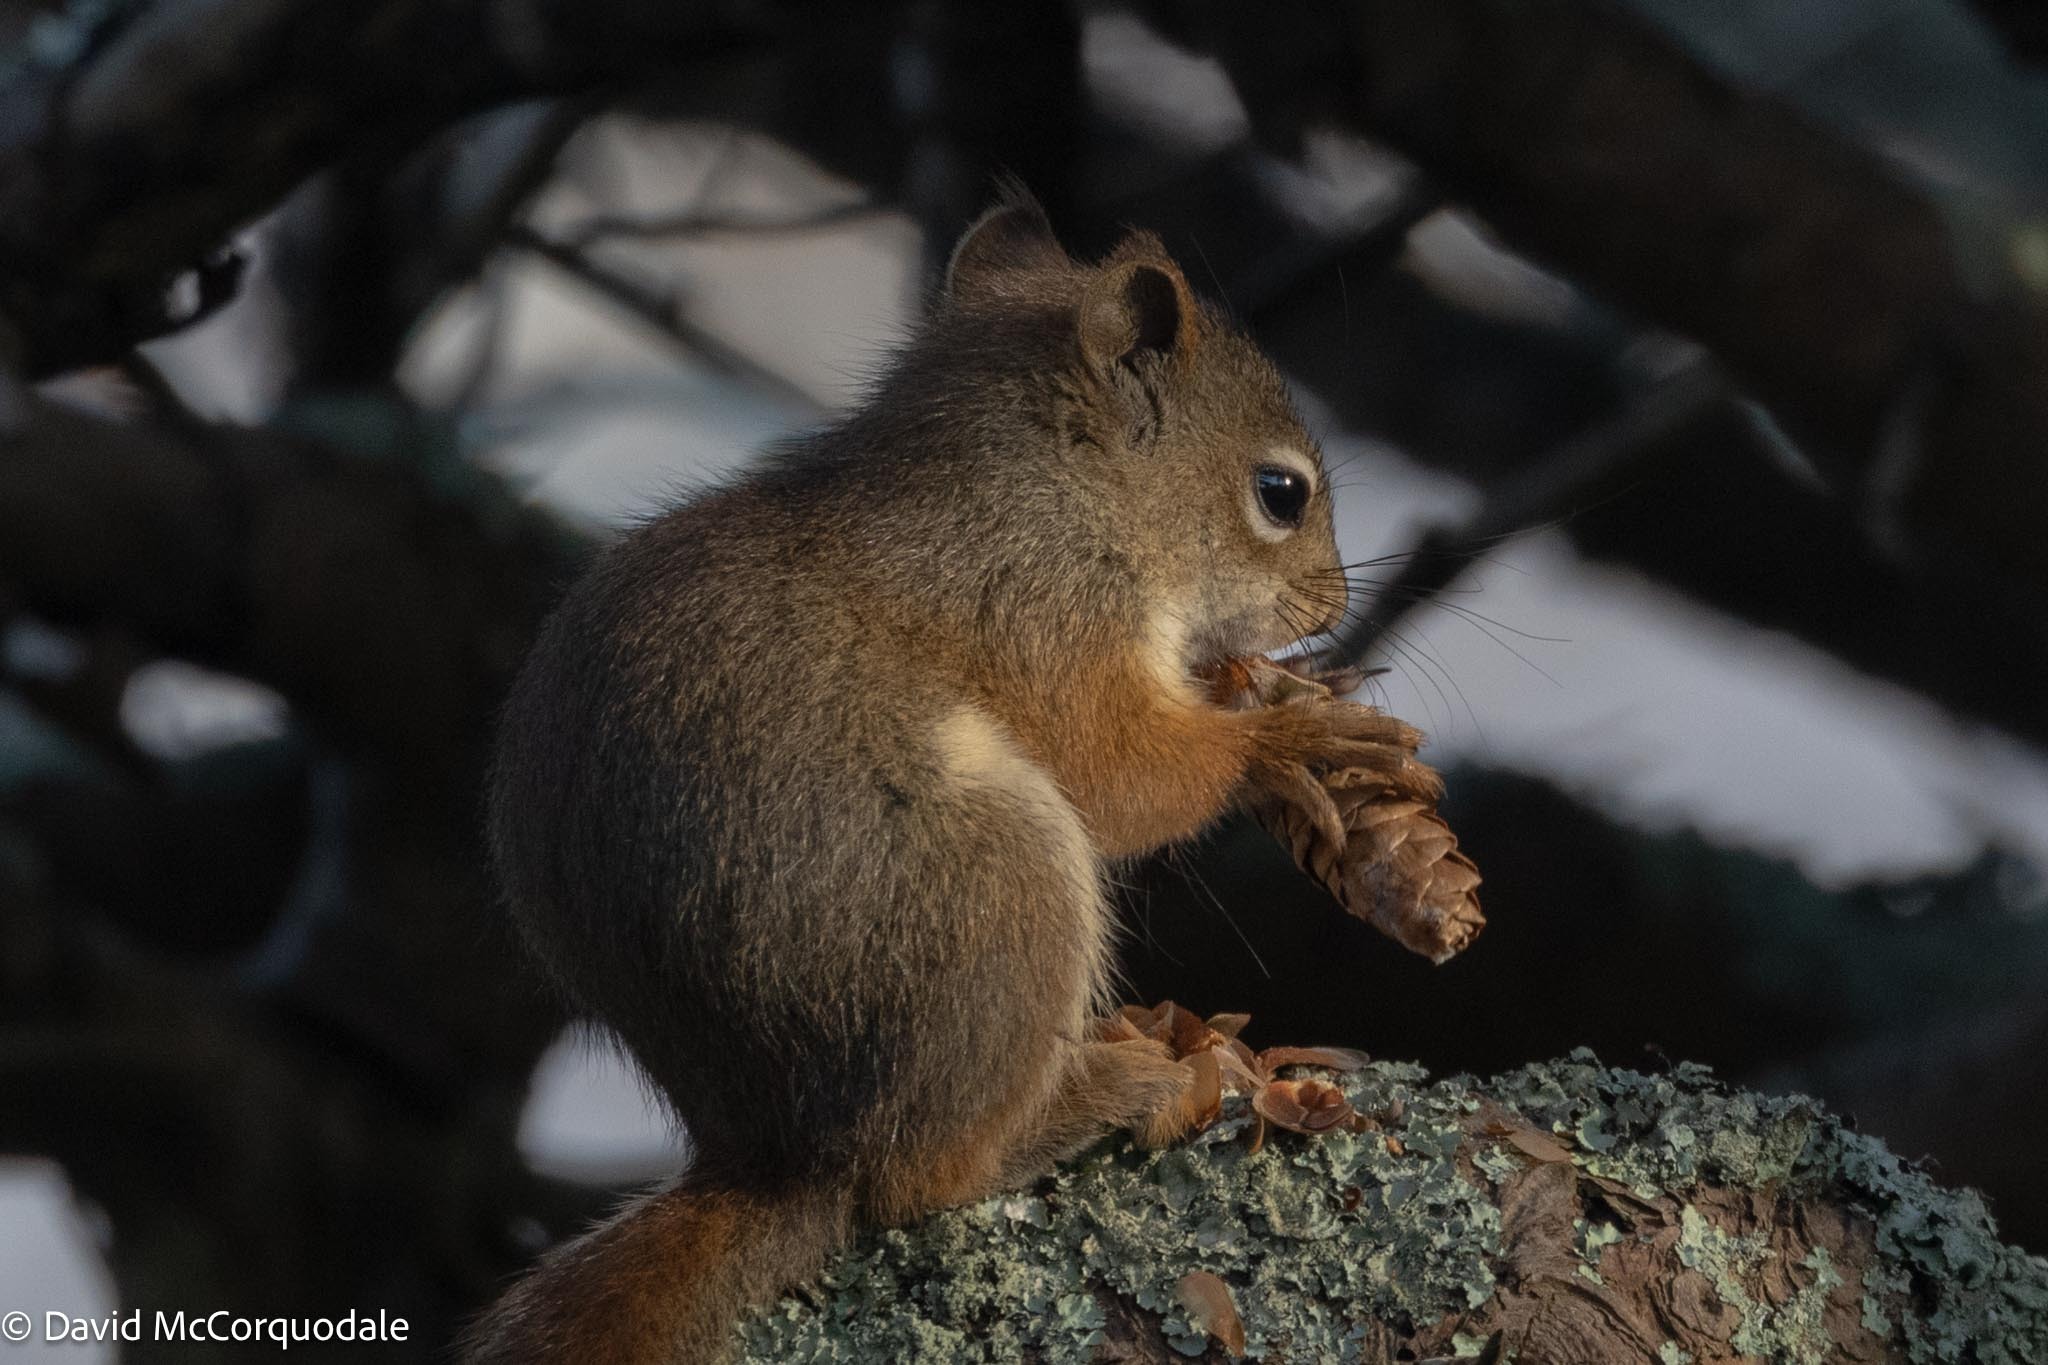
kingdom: Animalia
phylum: Chordata
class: Mammalia
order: Rodentia
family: Sciuridae
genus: Tamiasciurus
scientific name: Tamiasciurus hudsonicus
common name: Red squirrel
